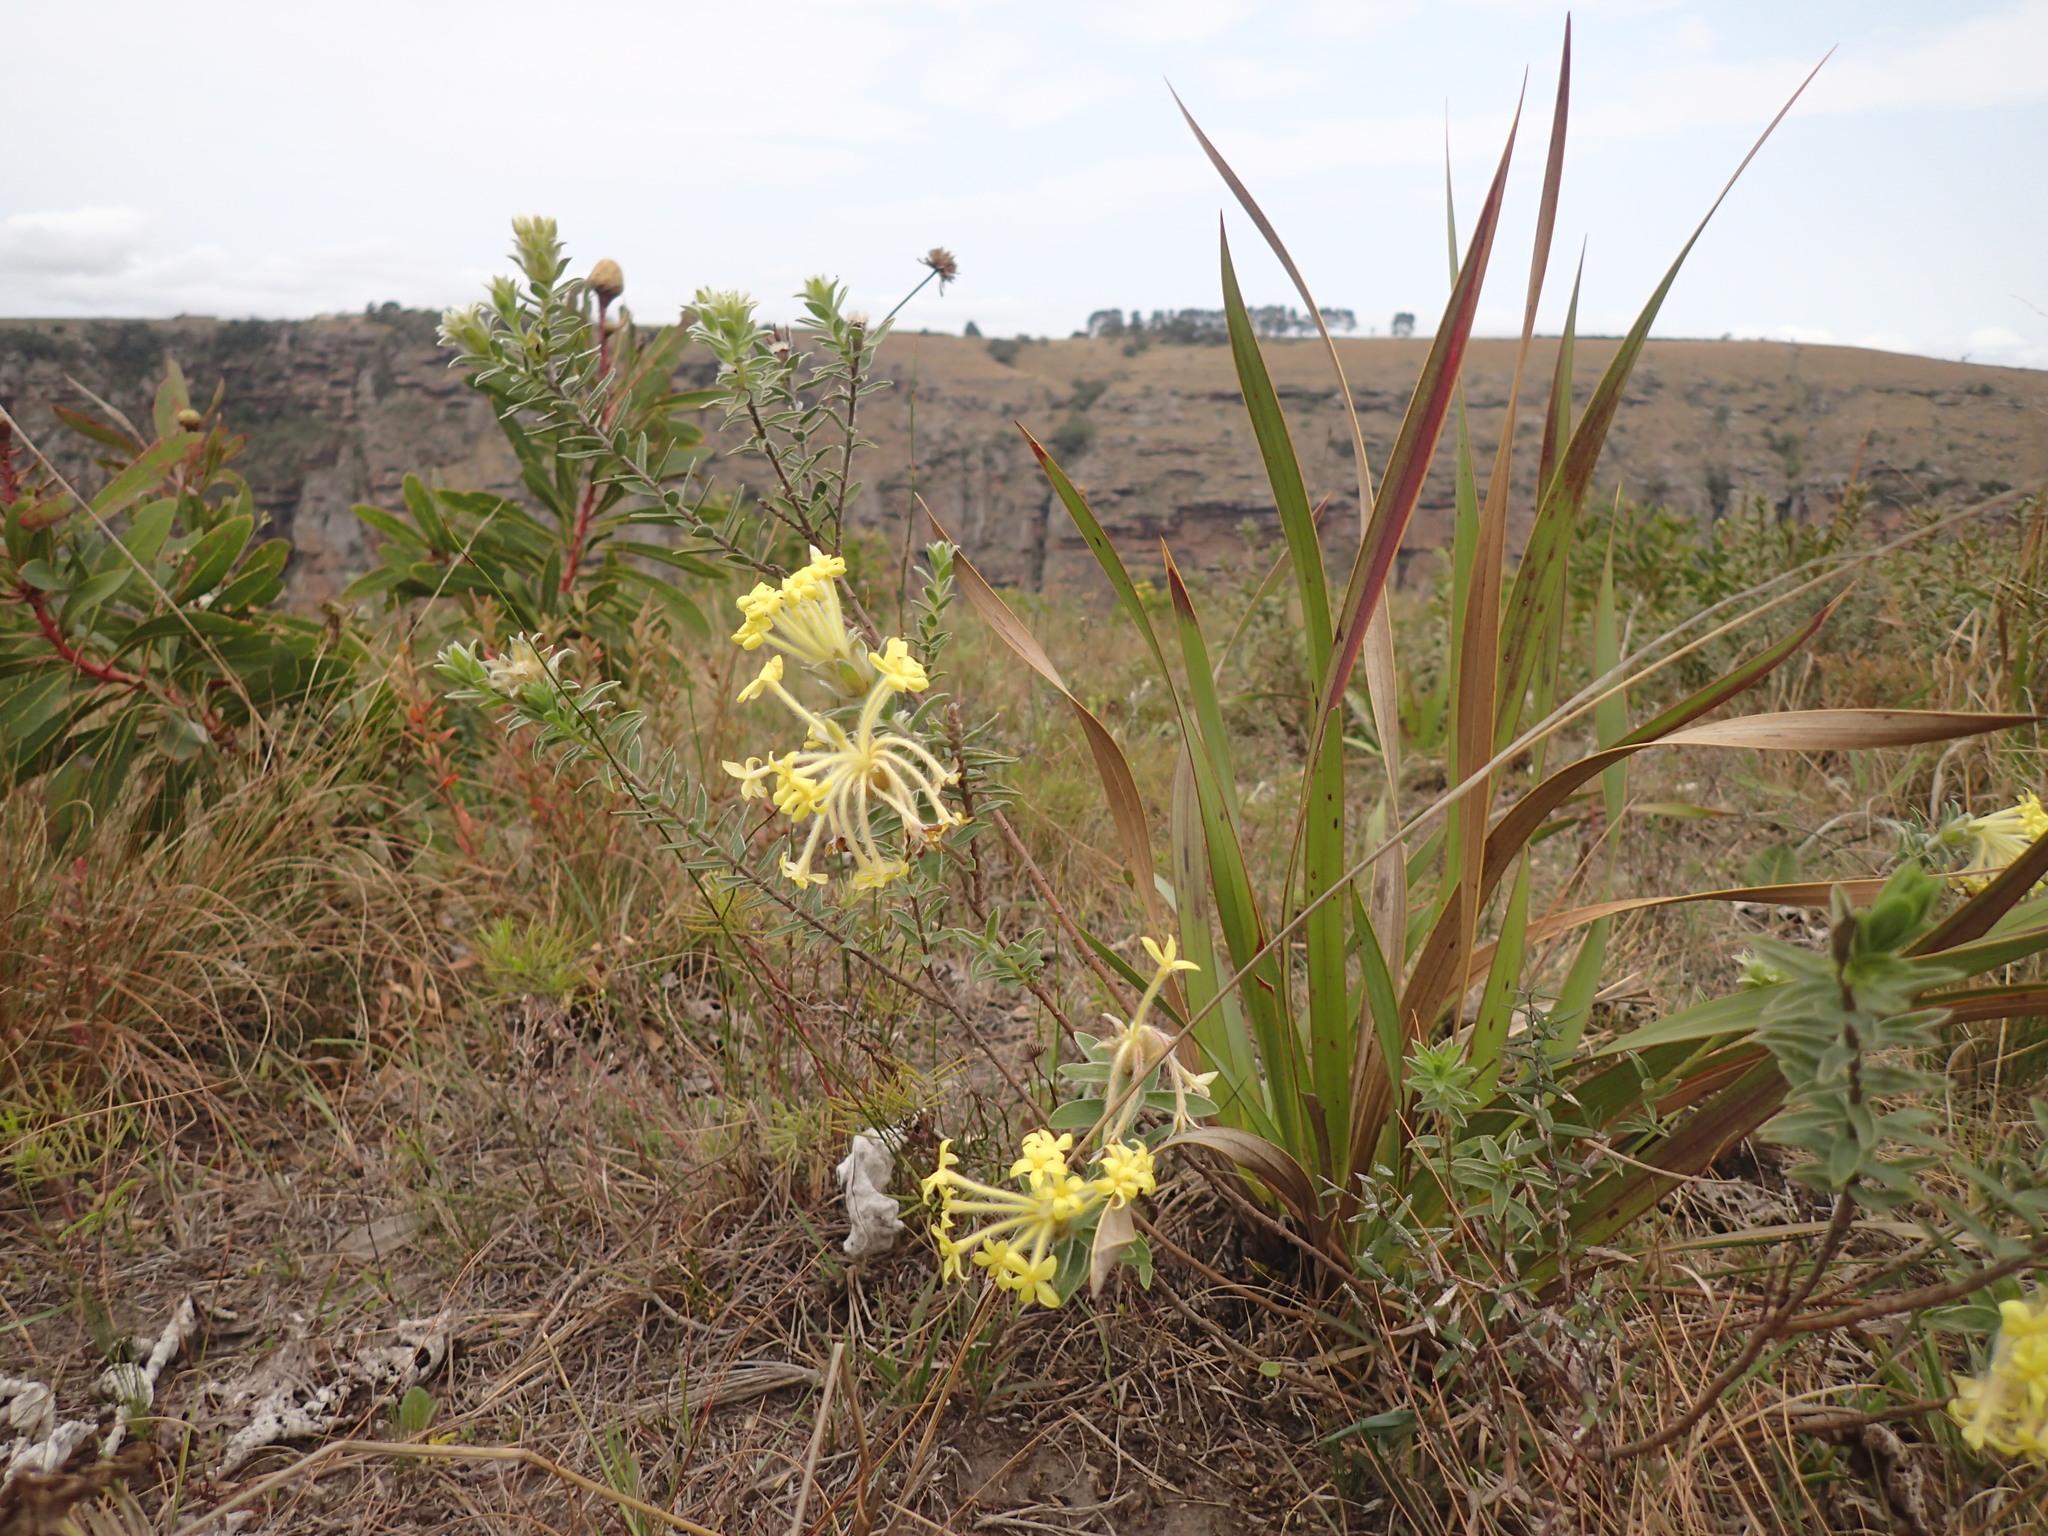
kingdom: Plantae
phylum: Tracheophyta
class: Magnoliopsida
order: Malvales
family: Thymelaeaceae
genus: Gnidia
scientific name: Gnidia anthylloides
